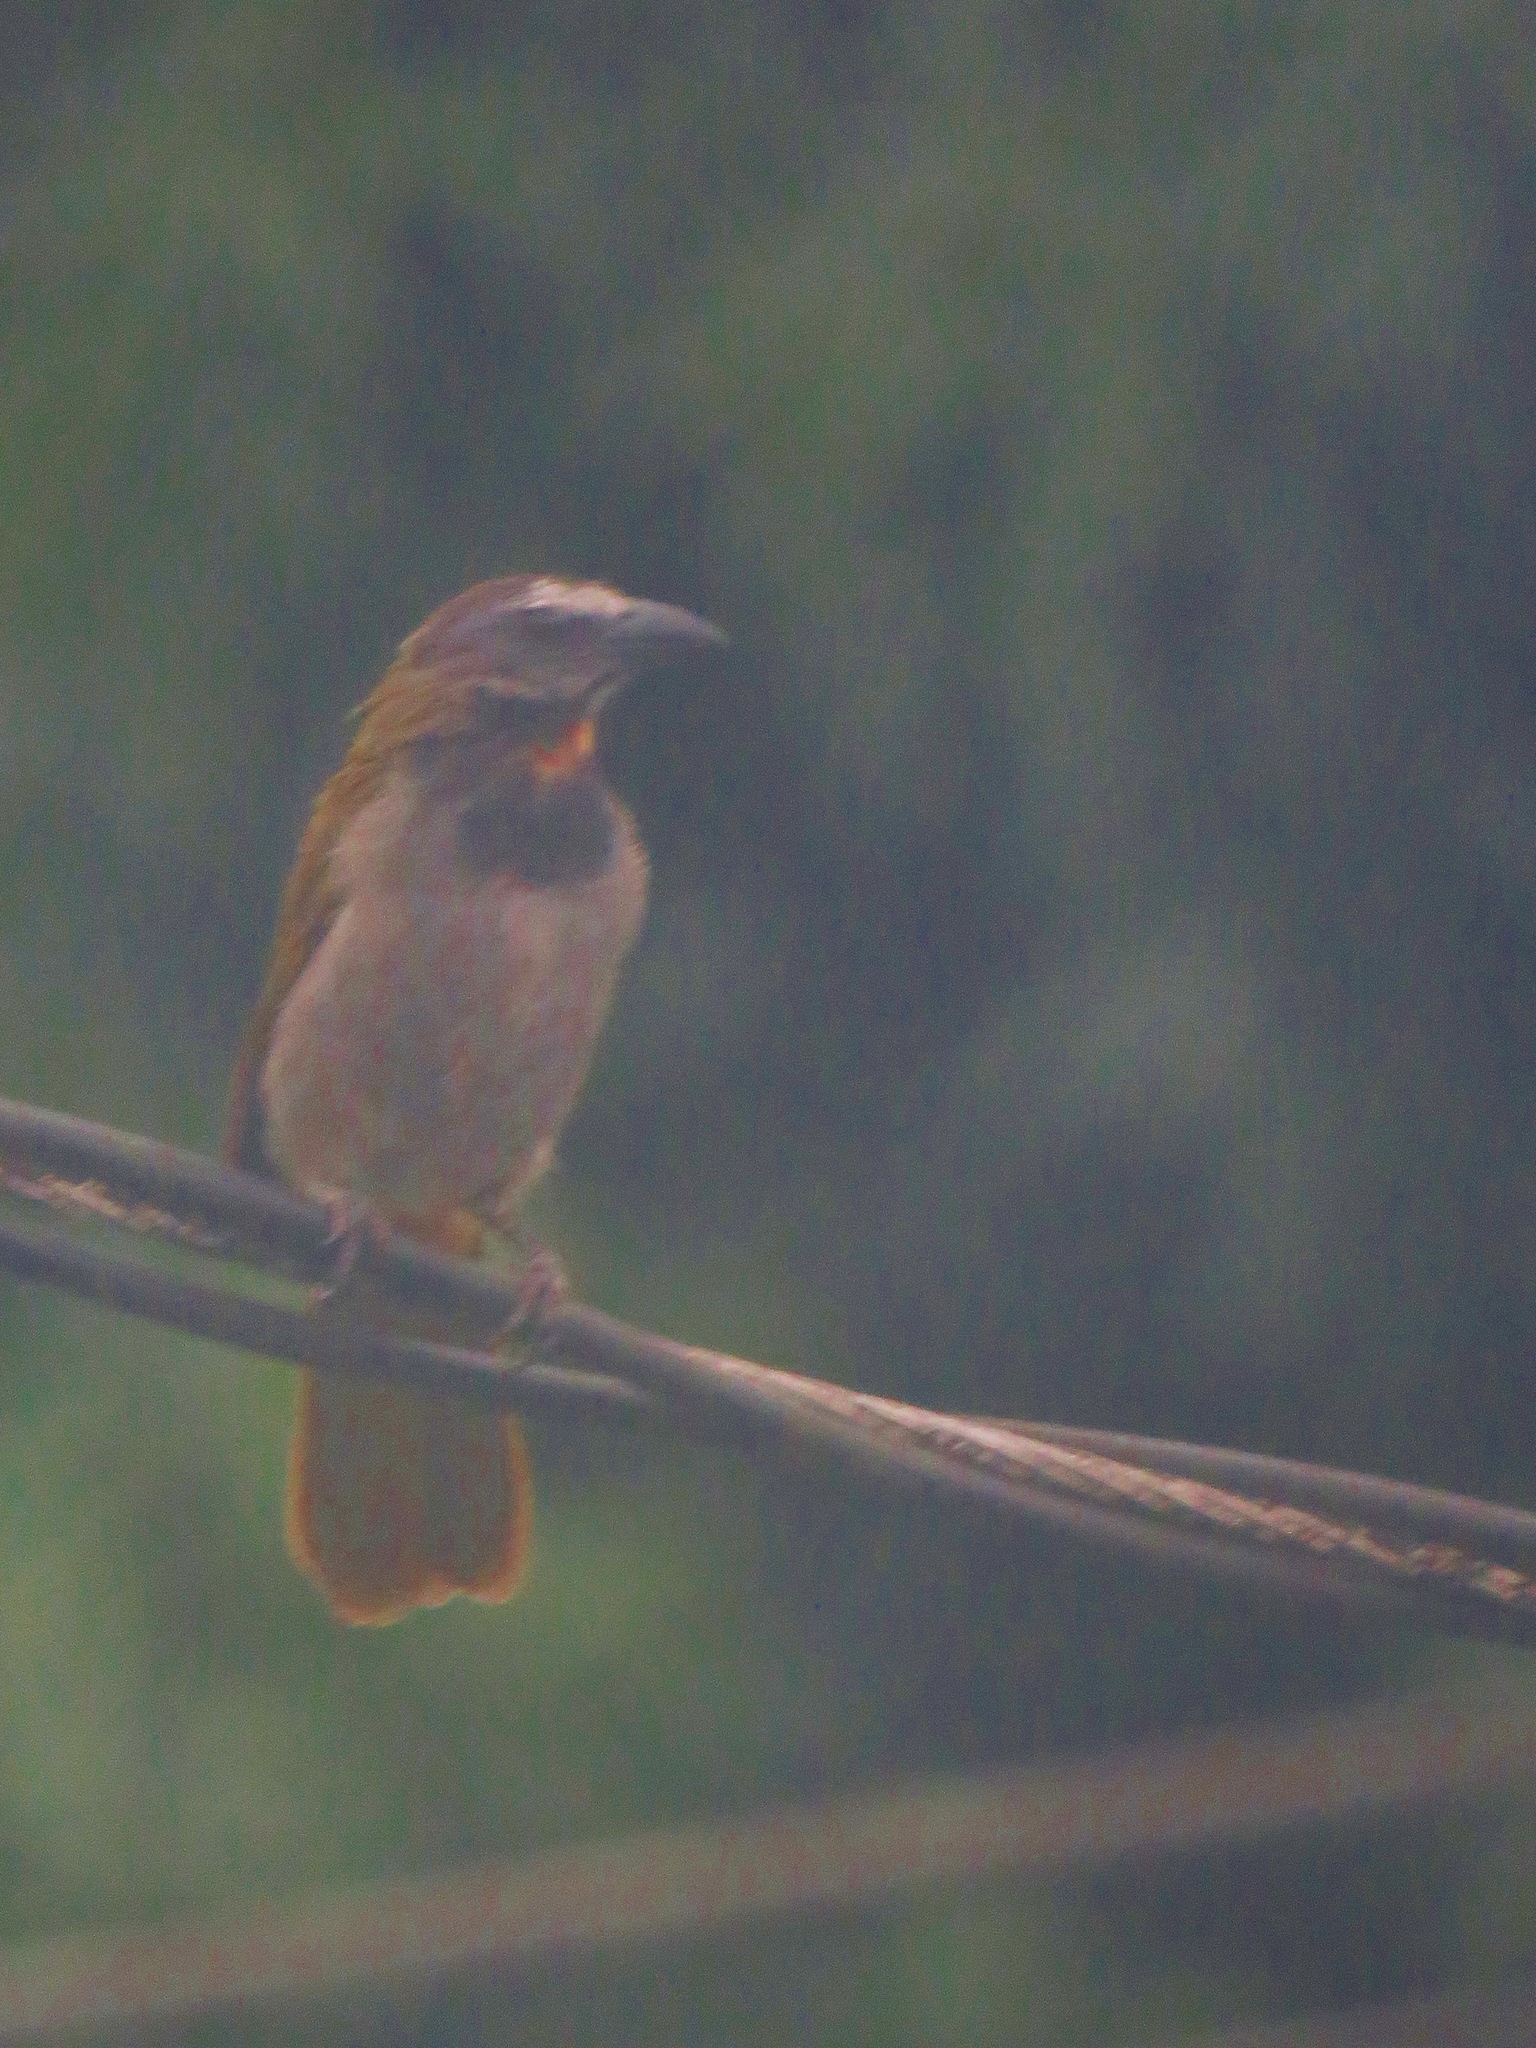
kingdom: Animalia
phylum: Chordata
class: Aves
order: Passeriformes
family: Thraupidae
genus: Saltator
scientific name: Saltator maximus
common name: Buff-throated saltator
